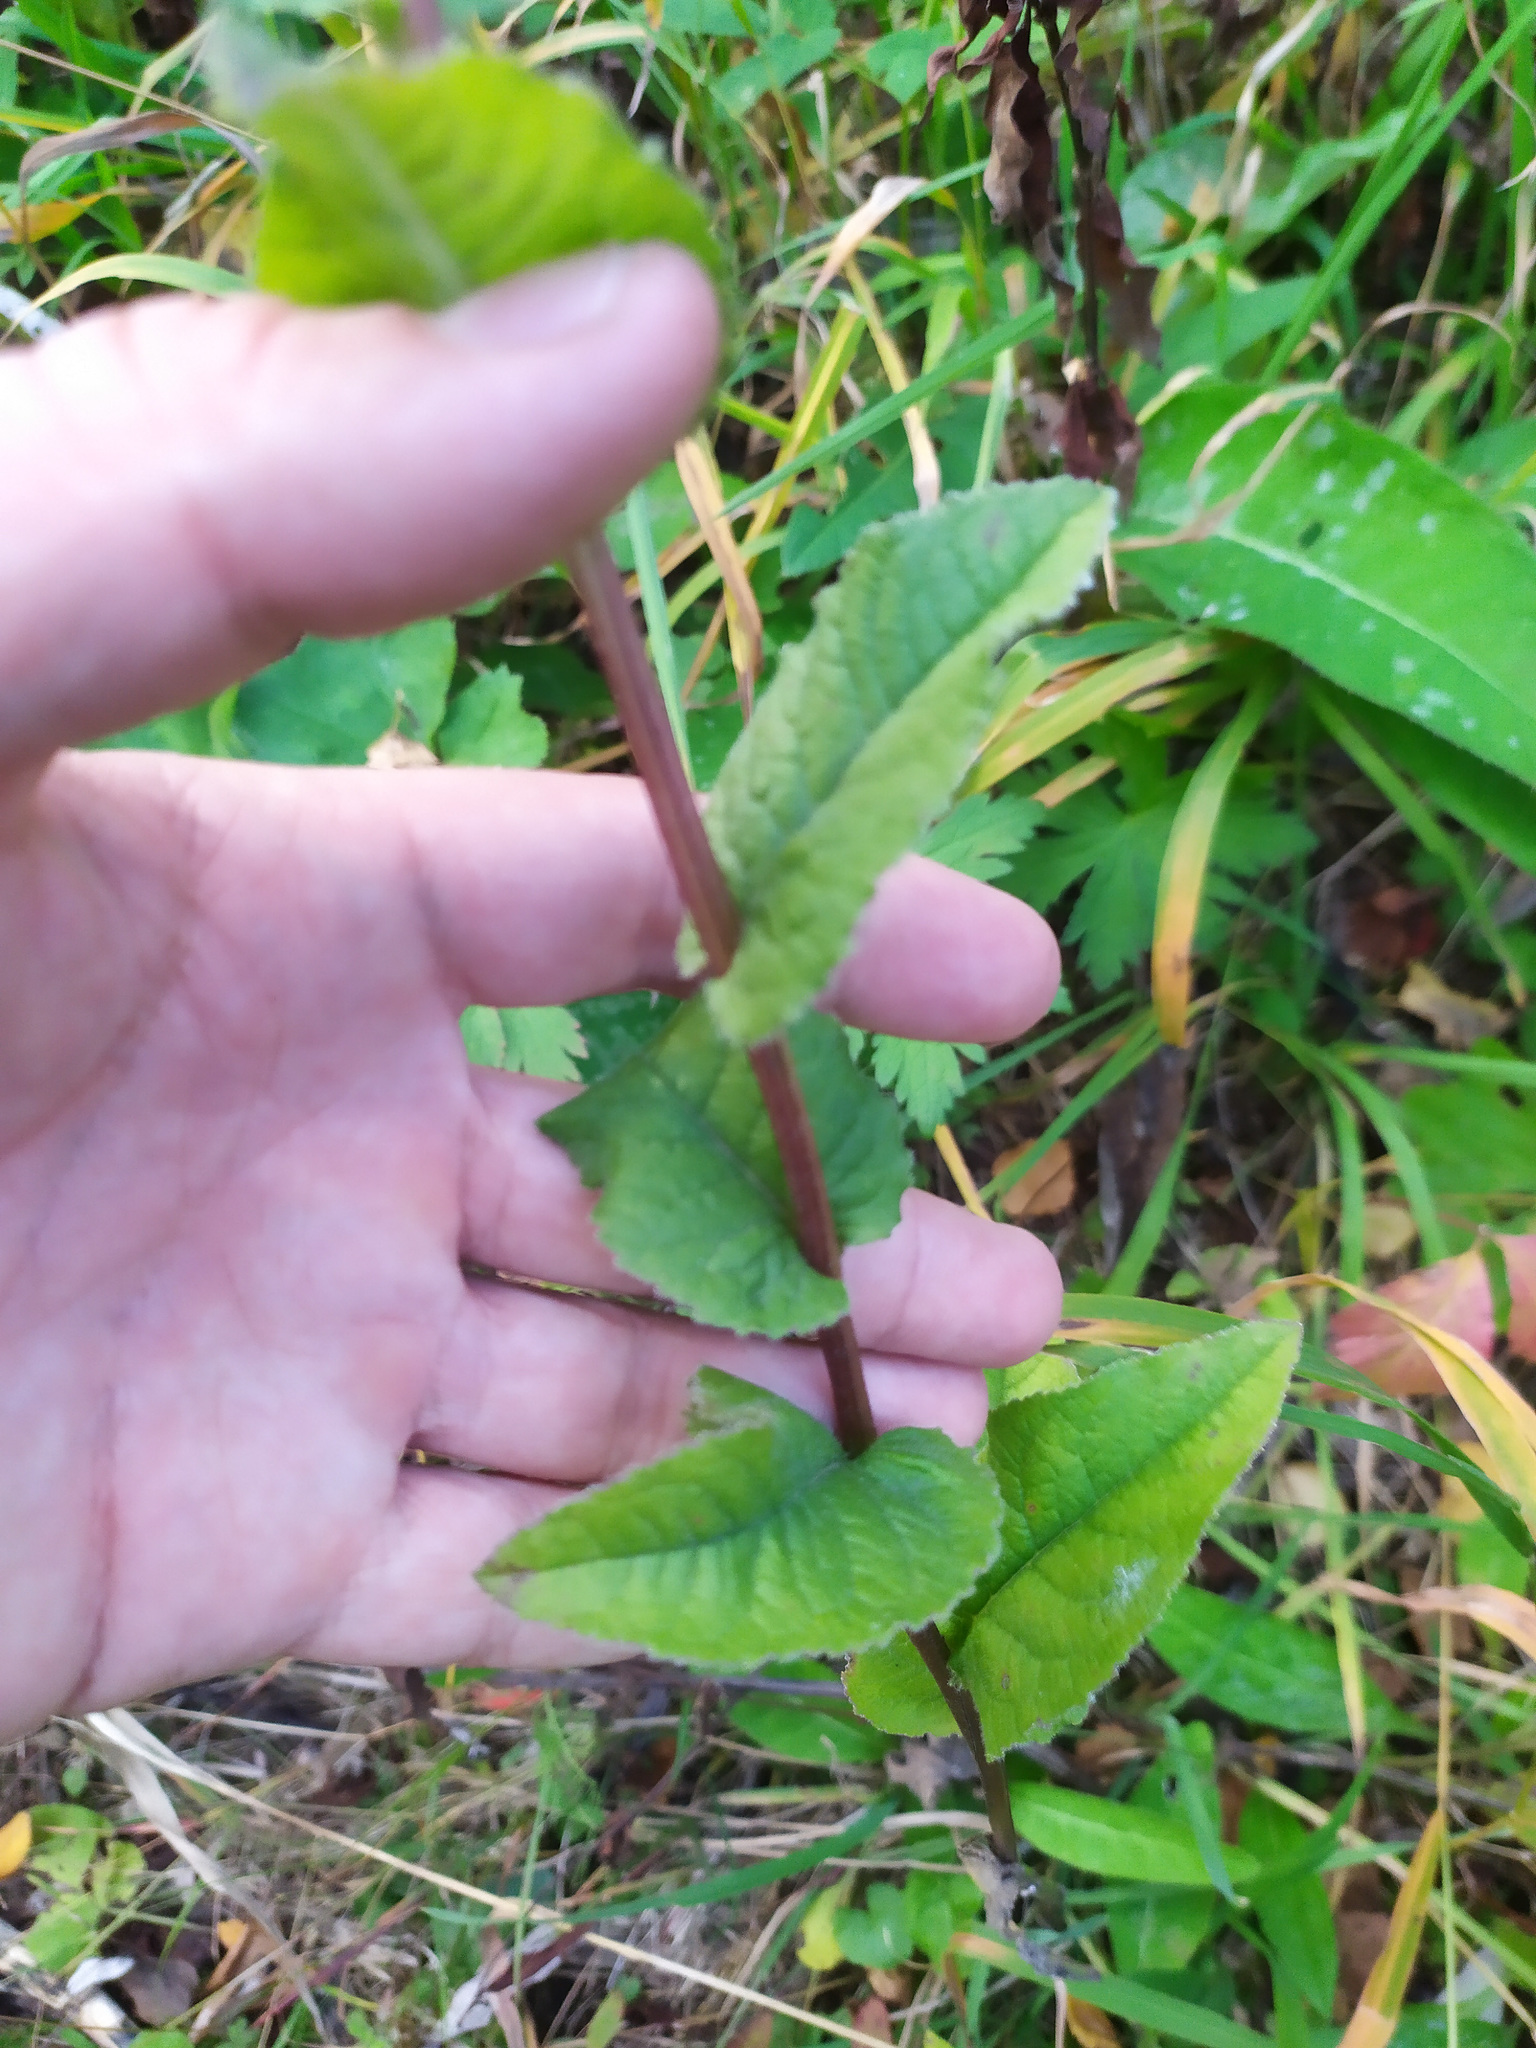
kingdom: Plantae
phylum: Tracheophyta
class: Magnoliopsida
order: Asterales
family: Campanulaceae
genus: Campanula
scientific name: Campanula glomerata
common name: Clustered bellflower
